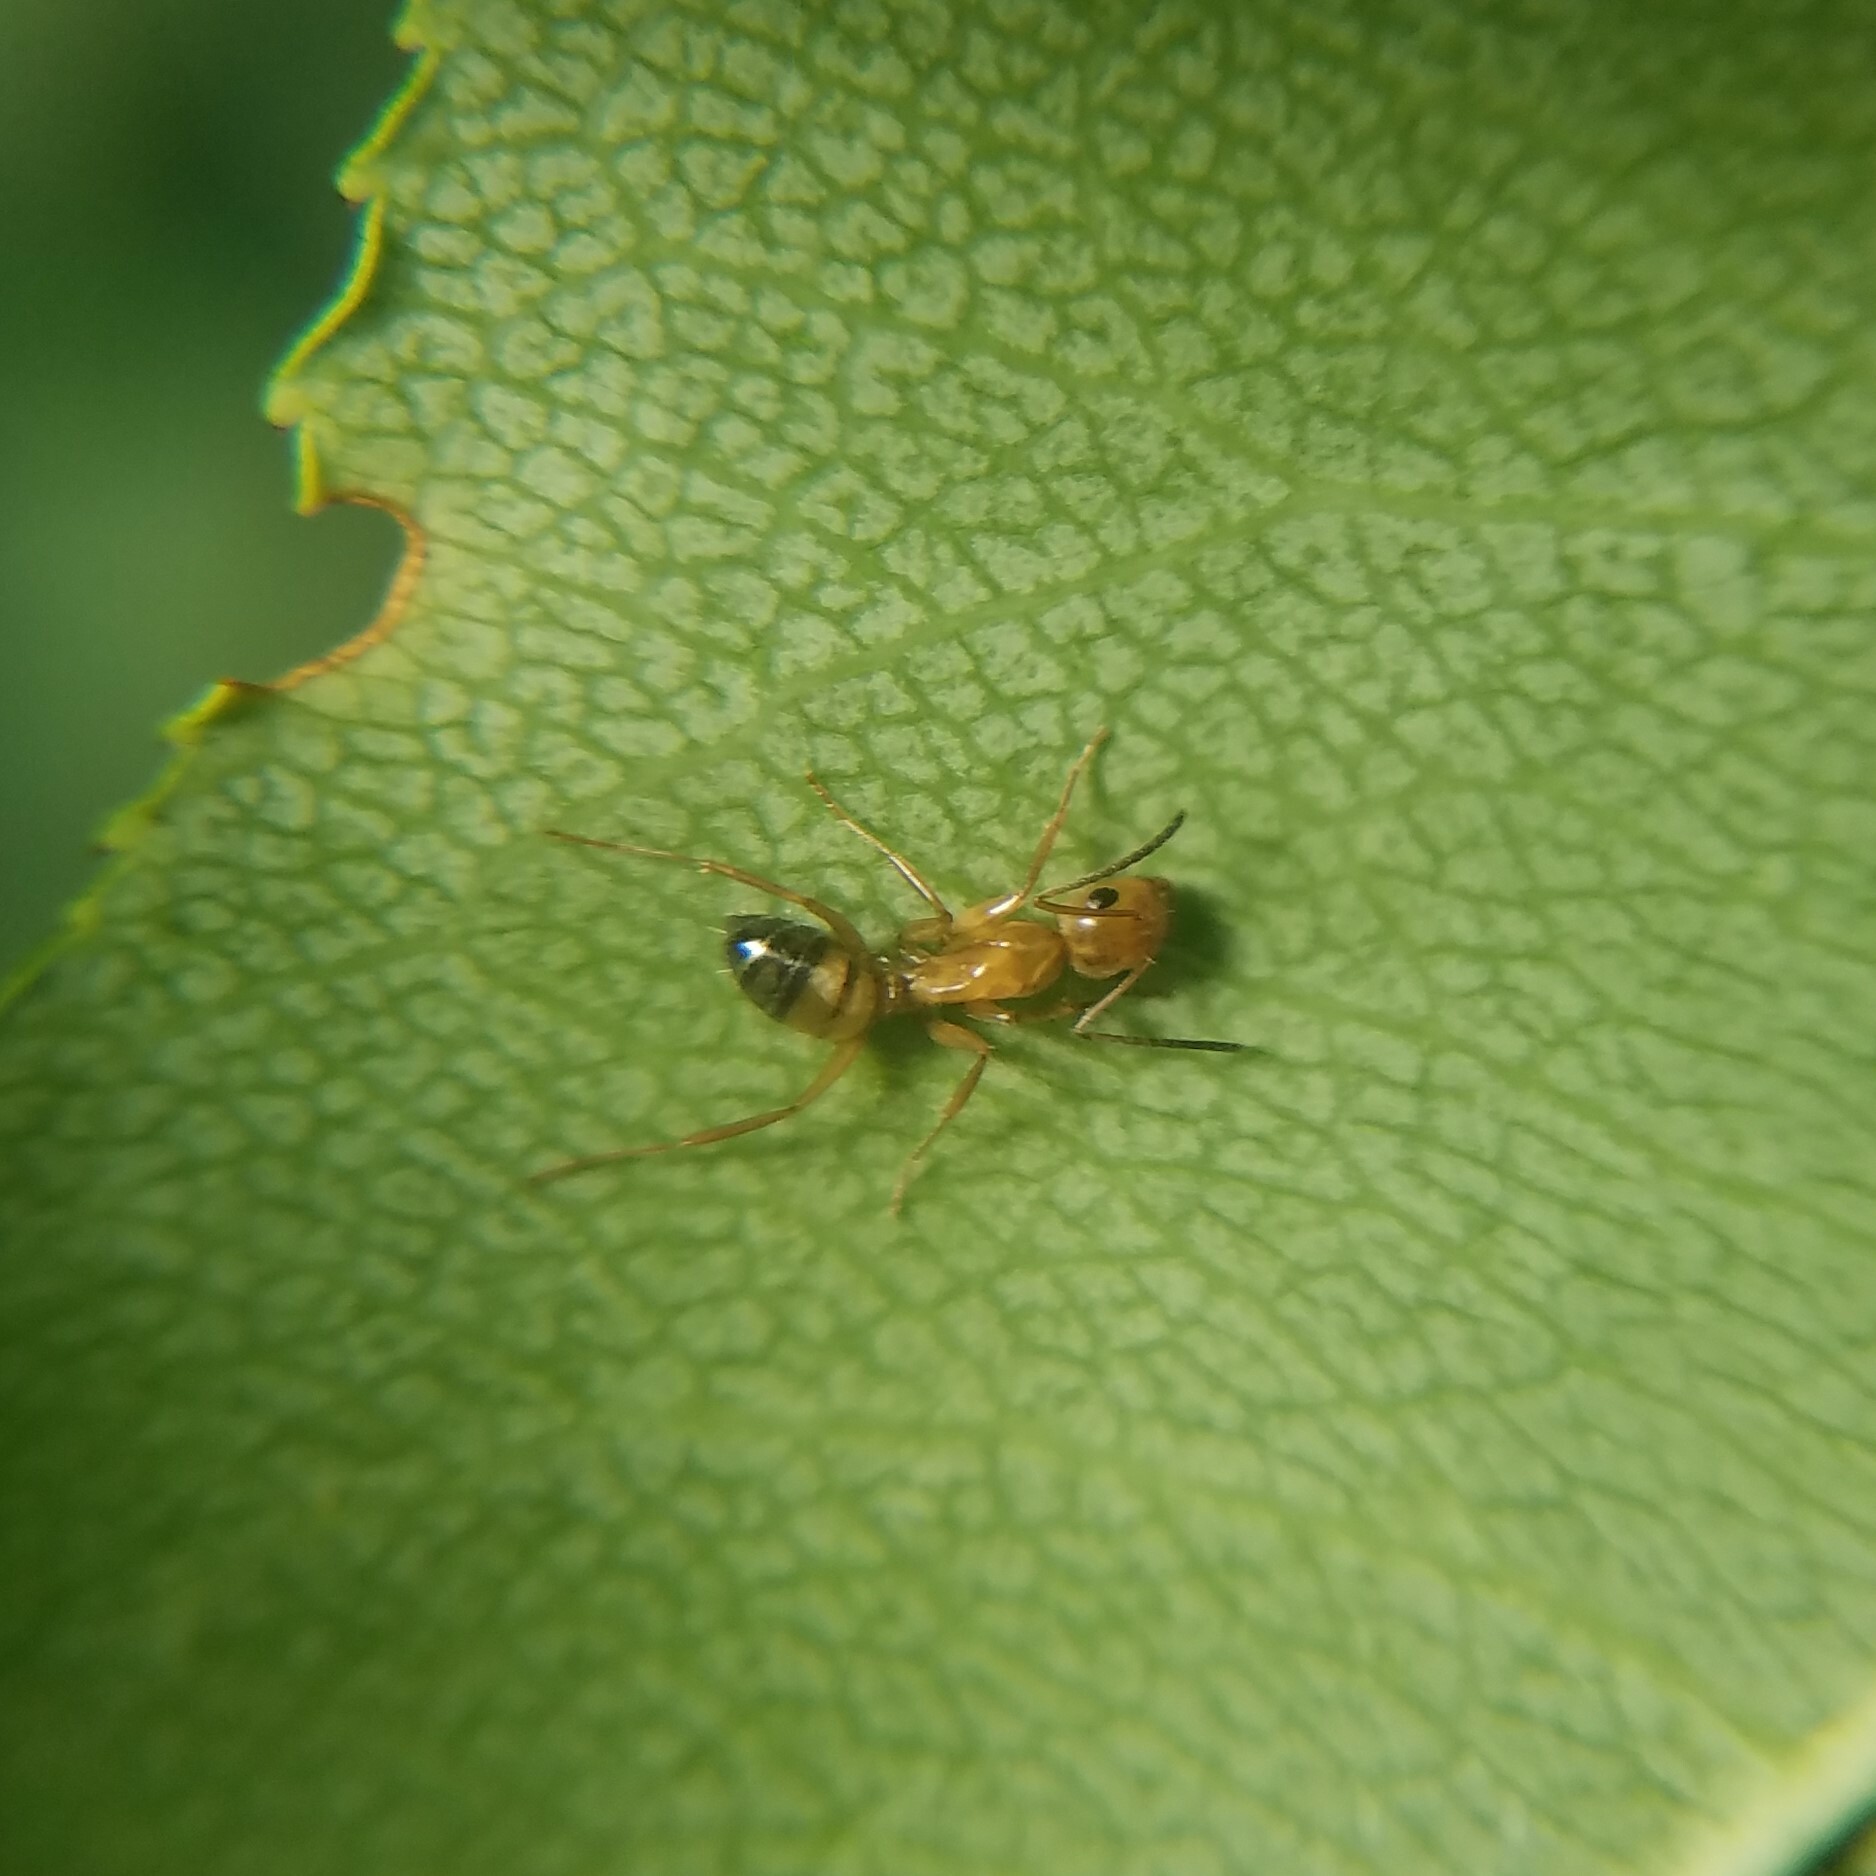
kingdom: Animalia
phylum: Arthropoda
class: Insecta
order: Hymenoptera
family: Formicidae
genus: Camponotus
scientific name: Camponotus snellingi
